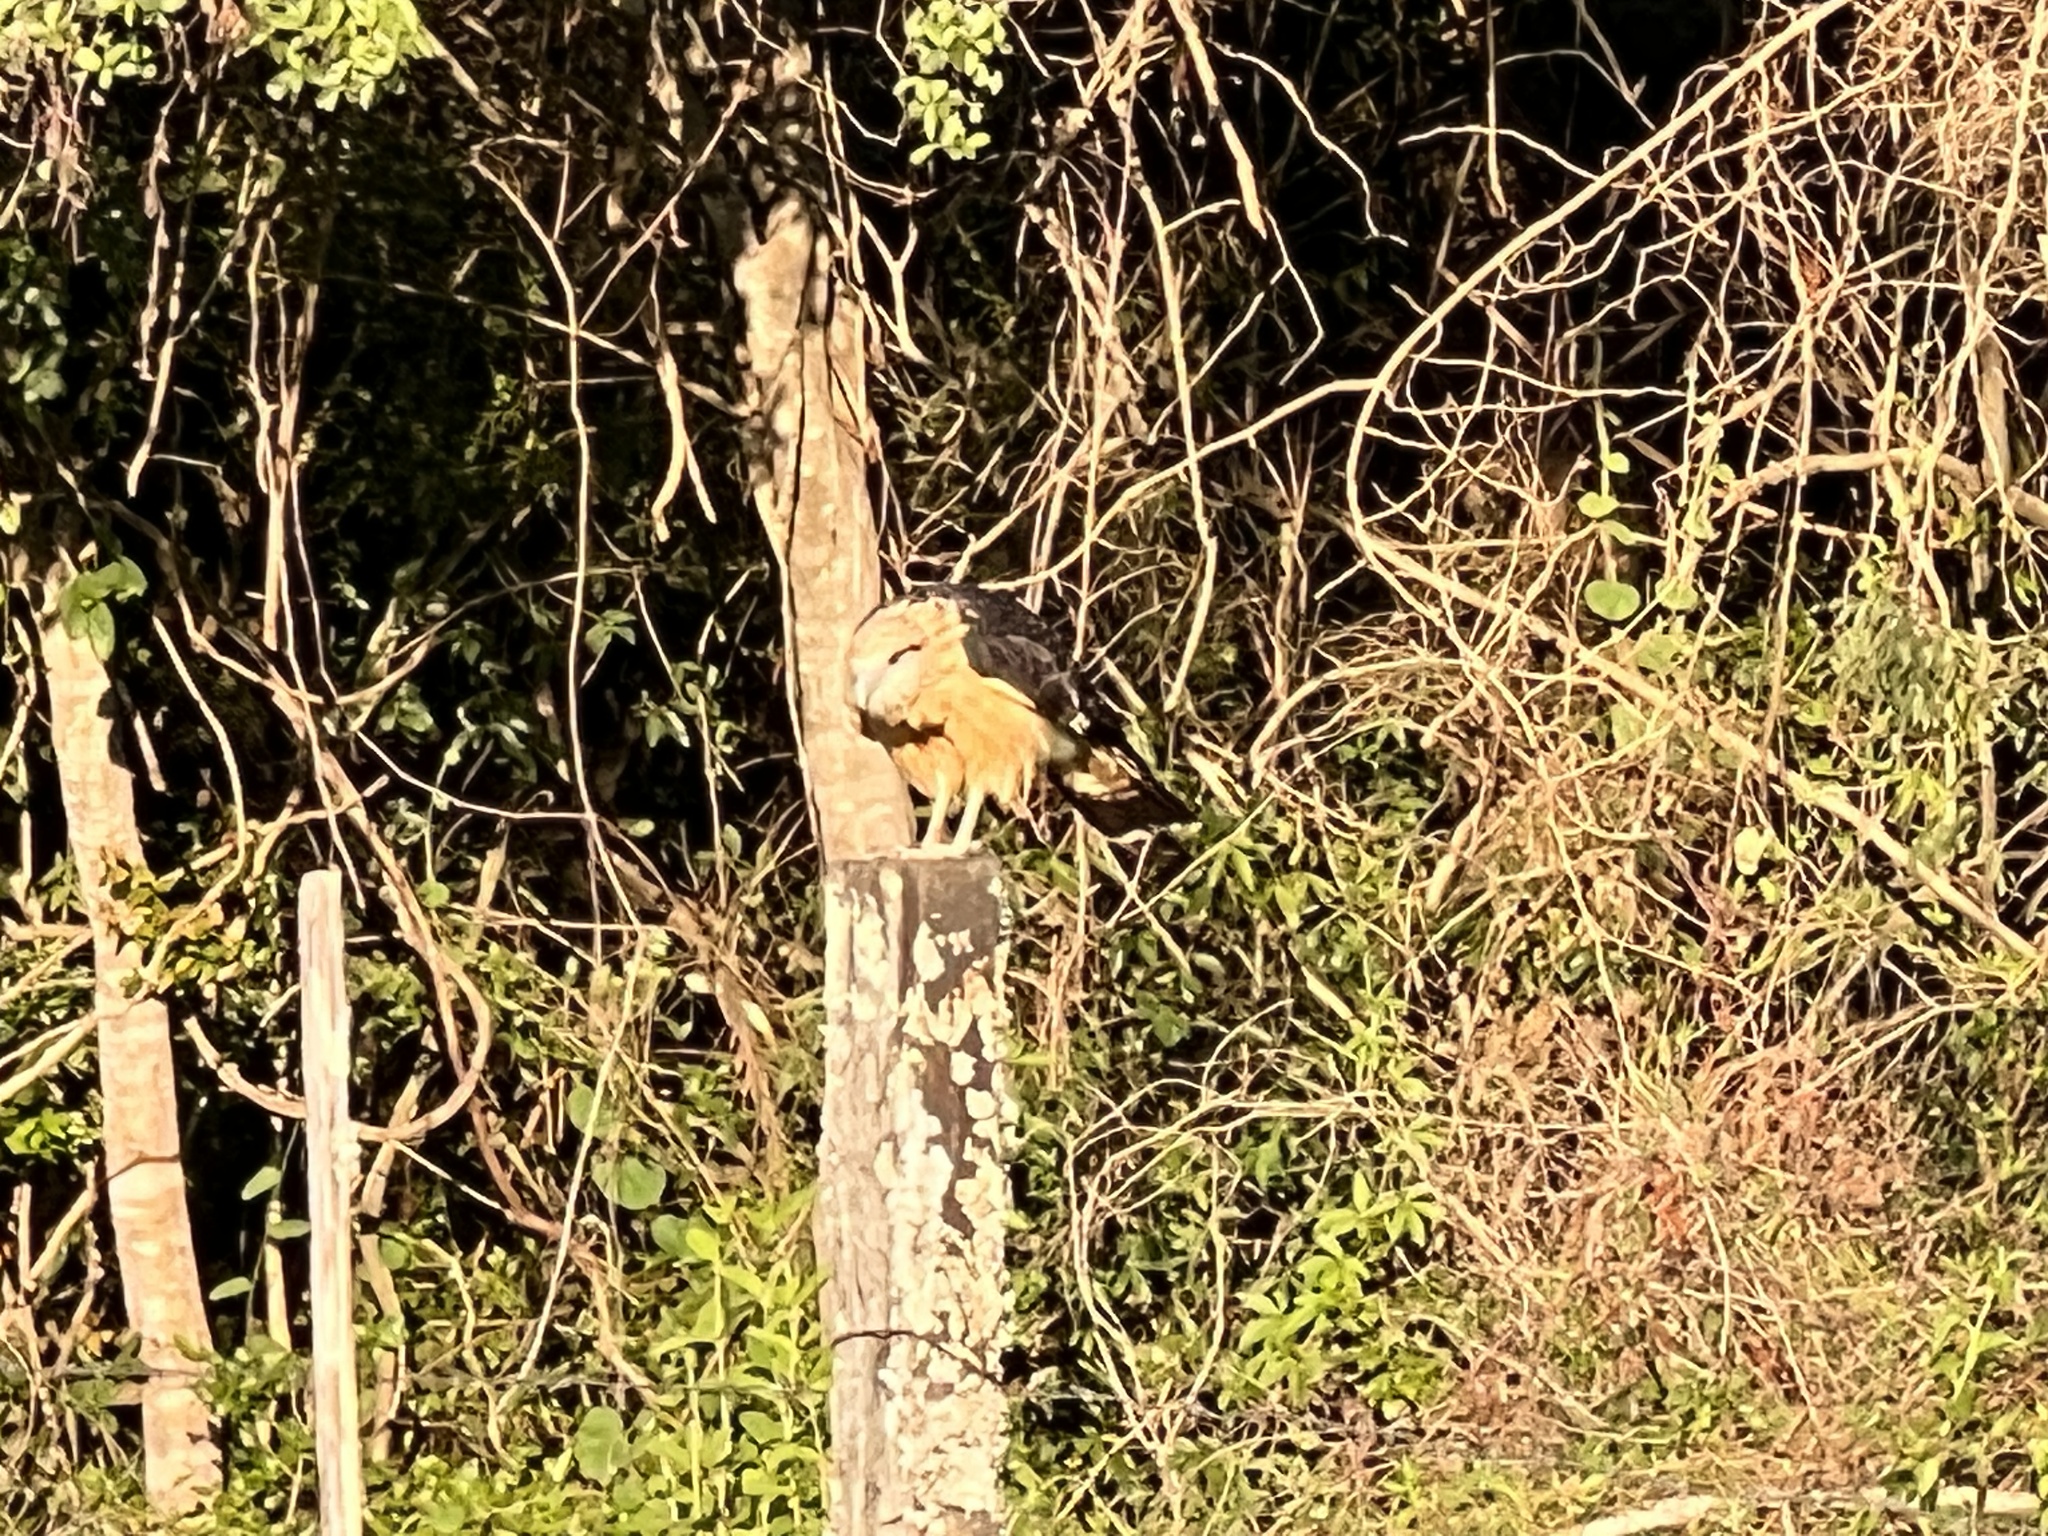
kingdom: Animalia
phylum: Chordata
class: Aves
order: Falconiformes
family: Falconidae
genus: Daptrius
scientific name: Daptrius
